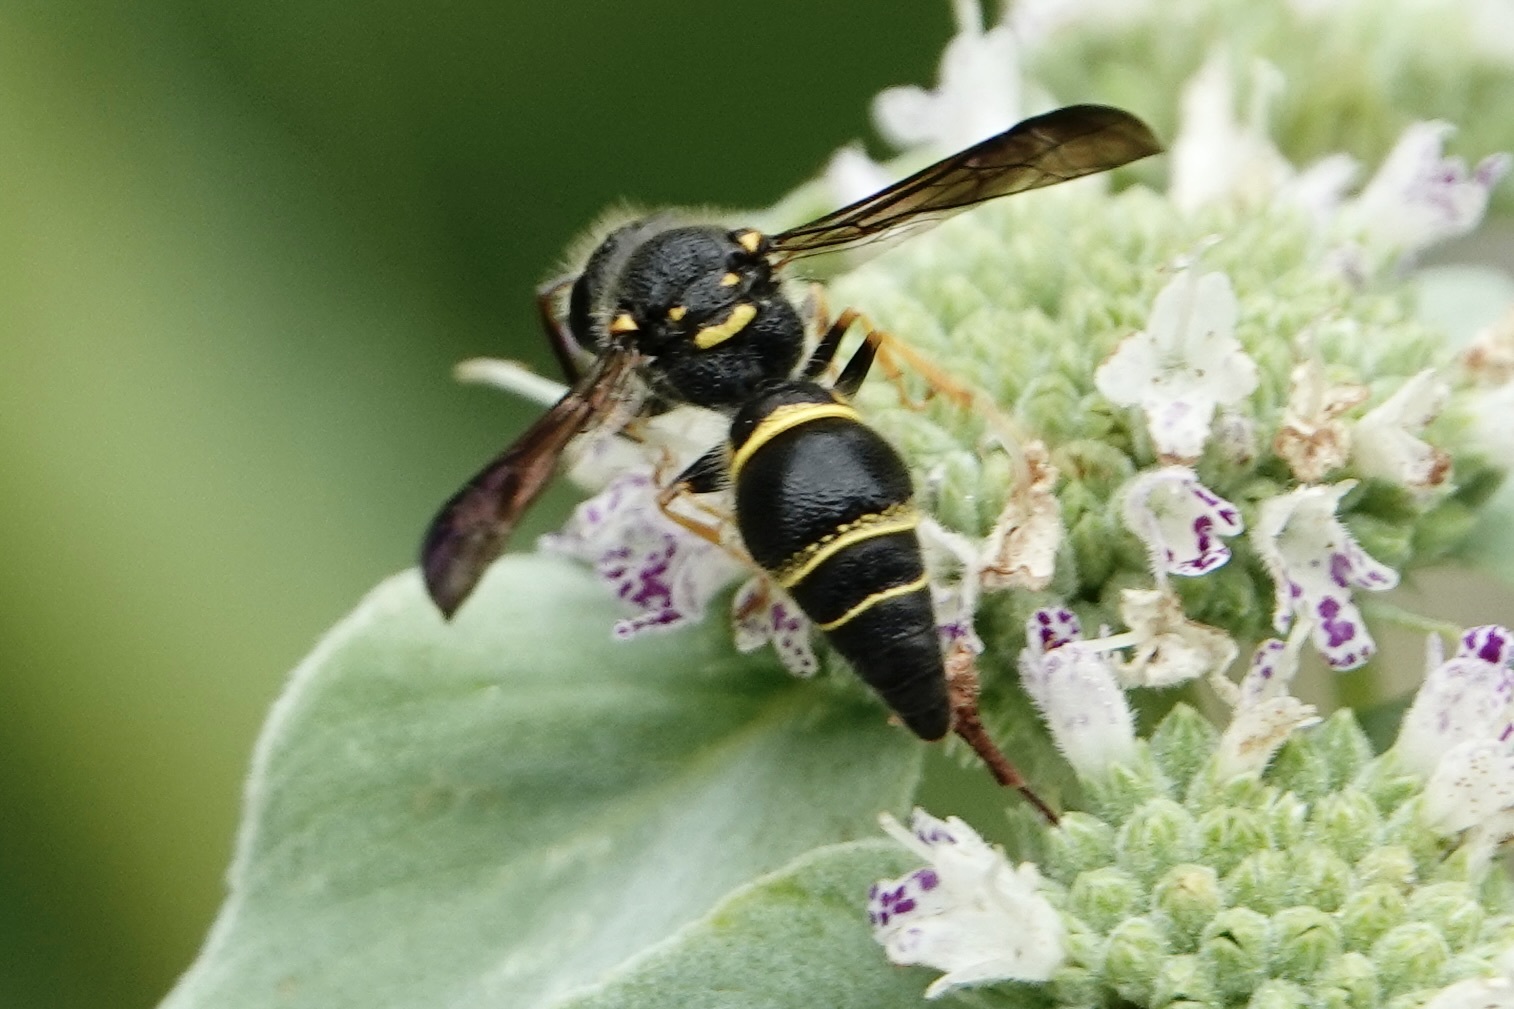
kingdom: Animalia
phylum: Arthropoda
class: Insecta
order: Hymenoptera
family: Vespidae
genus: Ancistrocerus
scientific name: Ancistrocerus campestris
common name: Smiling mason wasp
